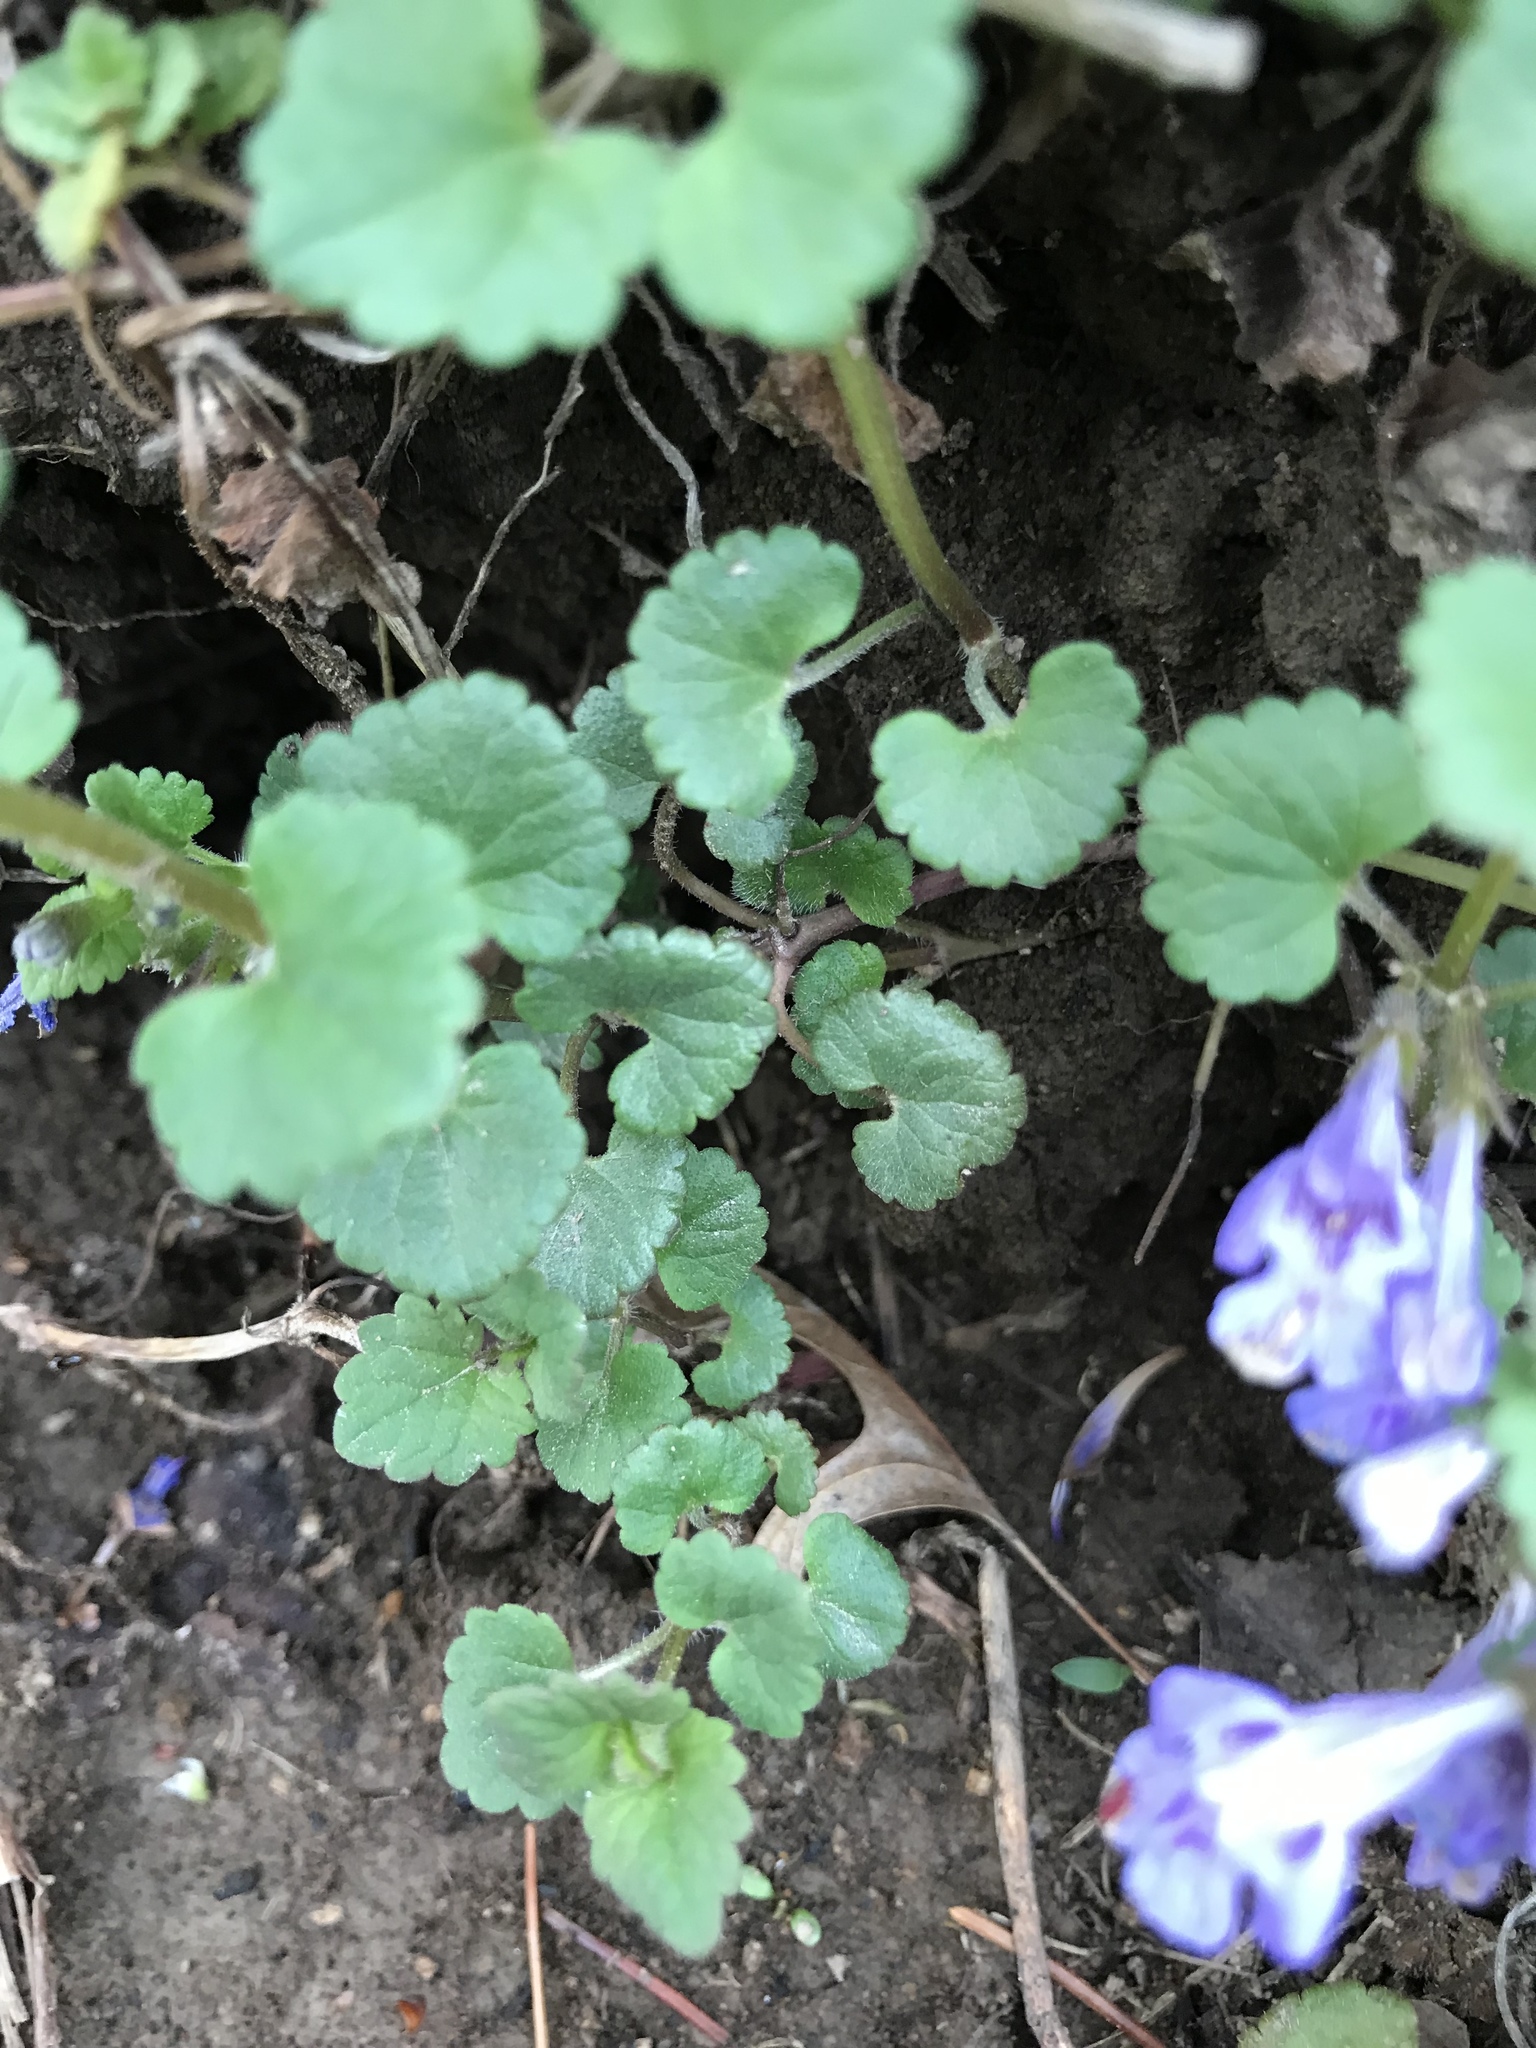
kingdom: Plantae
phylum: Tracheophyta
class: Magnoliopsida
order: Lamiales
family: Lamiaceae
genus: Glechoma
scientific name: Glechoma hederacea
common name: Ground ivy
